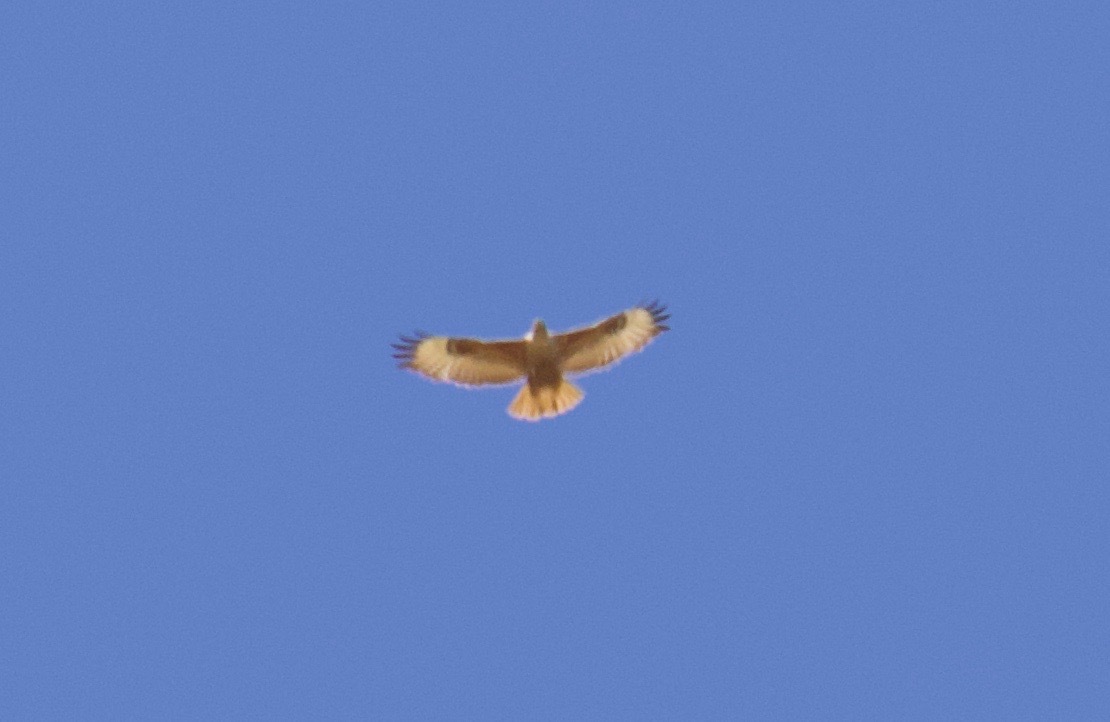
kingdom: Animalia
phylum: Chordata
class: Aves
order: Accipitriformes
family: Accipitridae
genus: Buteo
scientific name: Buteo buteo
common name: Common buzzard
